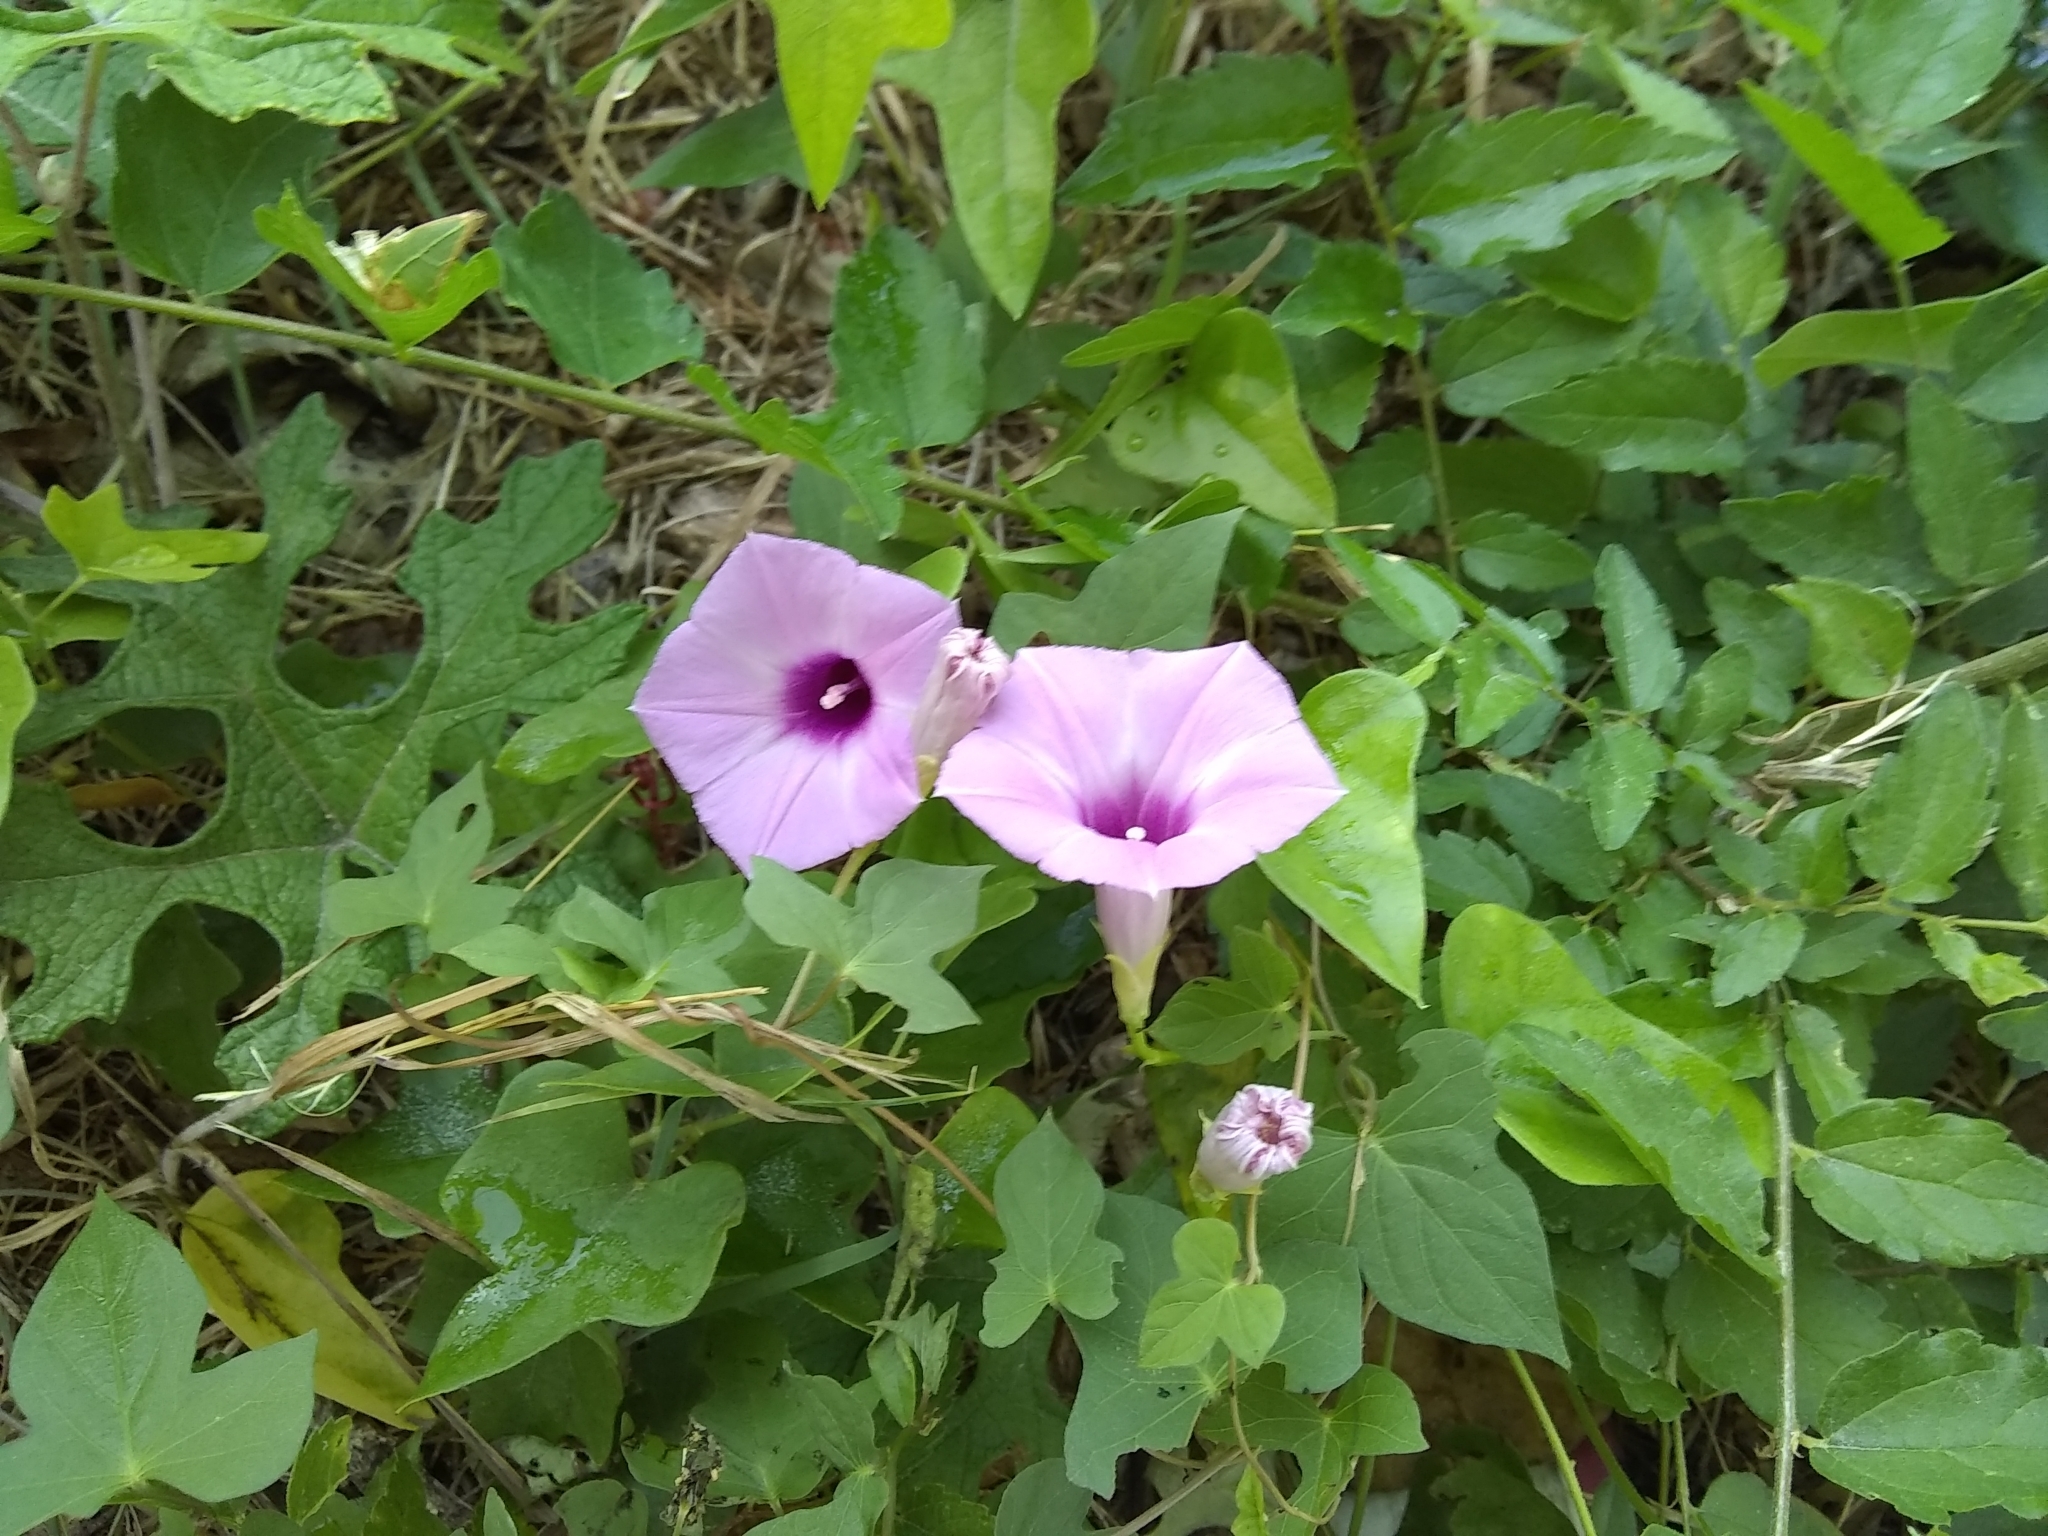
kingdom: Plantae
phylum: Tracheophyta
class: Magnoliopsida
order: Solanales
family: Convolvulaceae
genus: Ipomoea
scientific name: Ipomoea cordatotriloba
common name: Cotton morning glory
